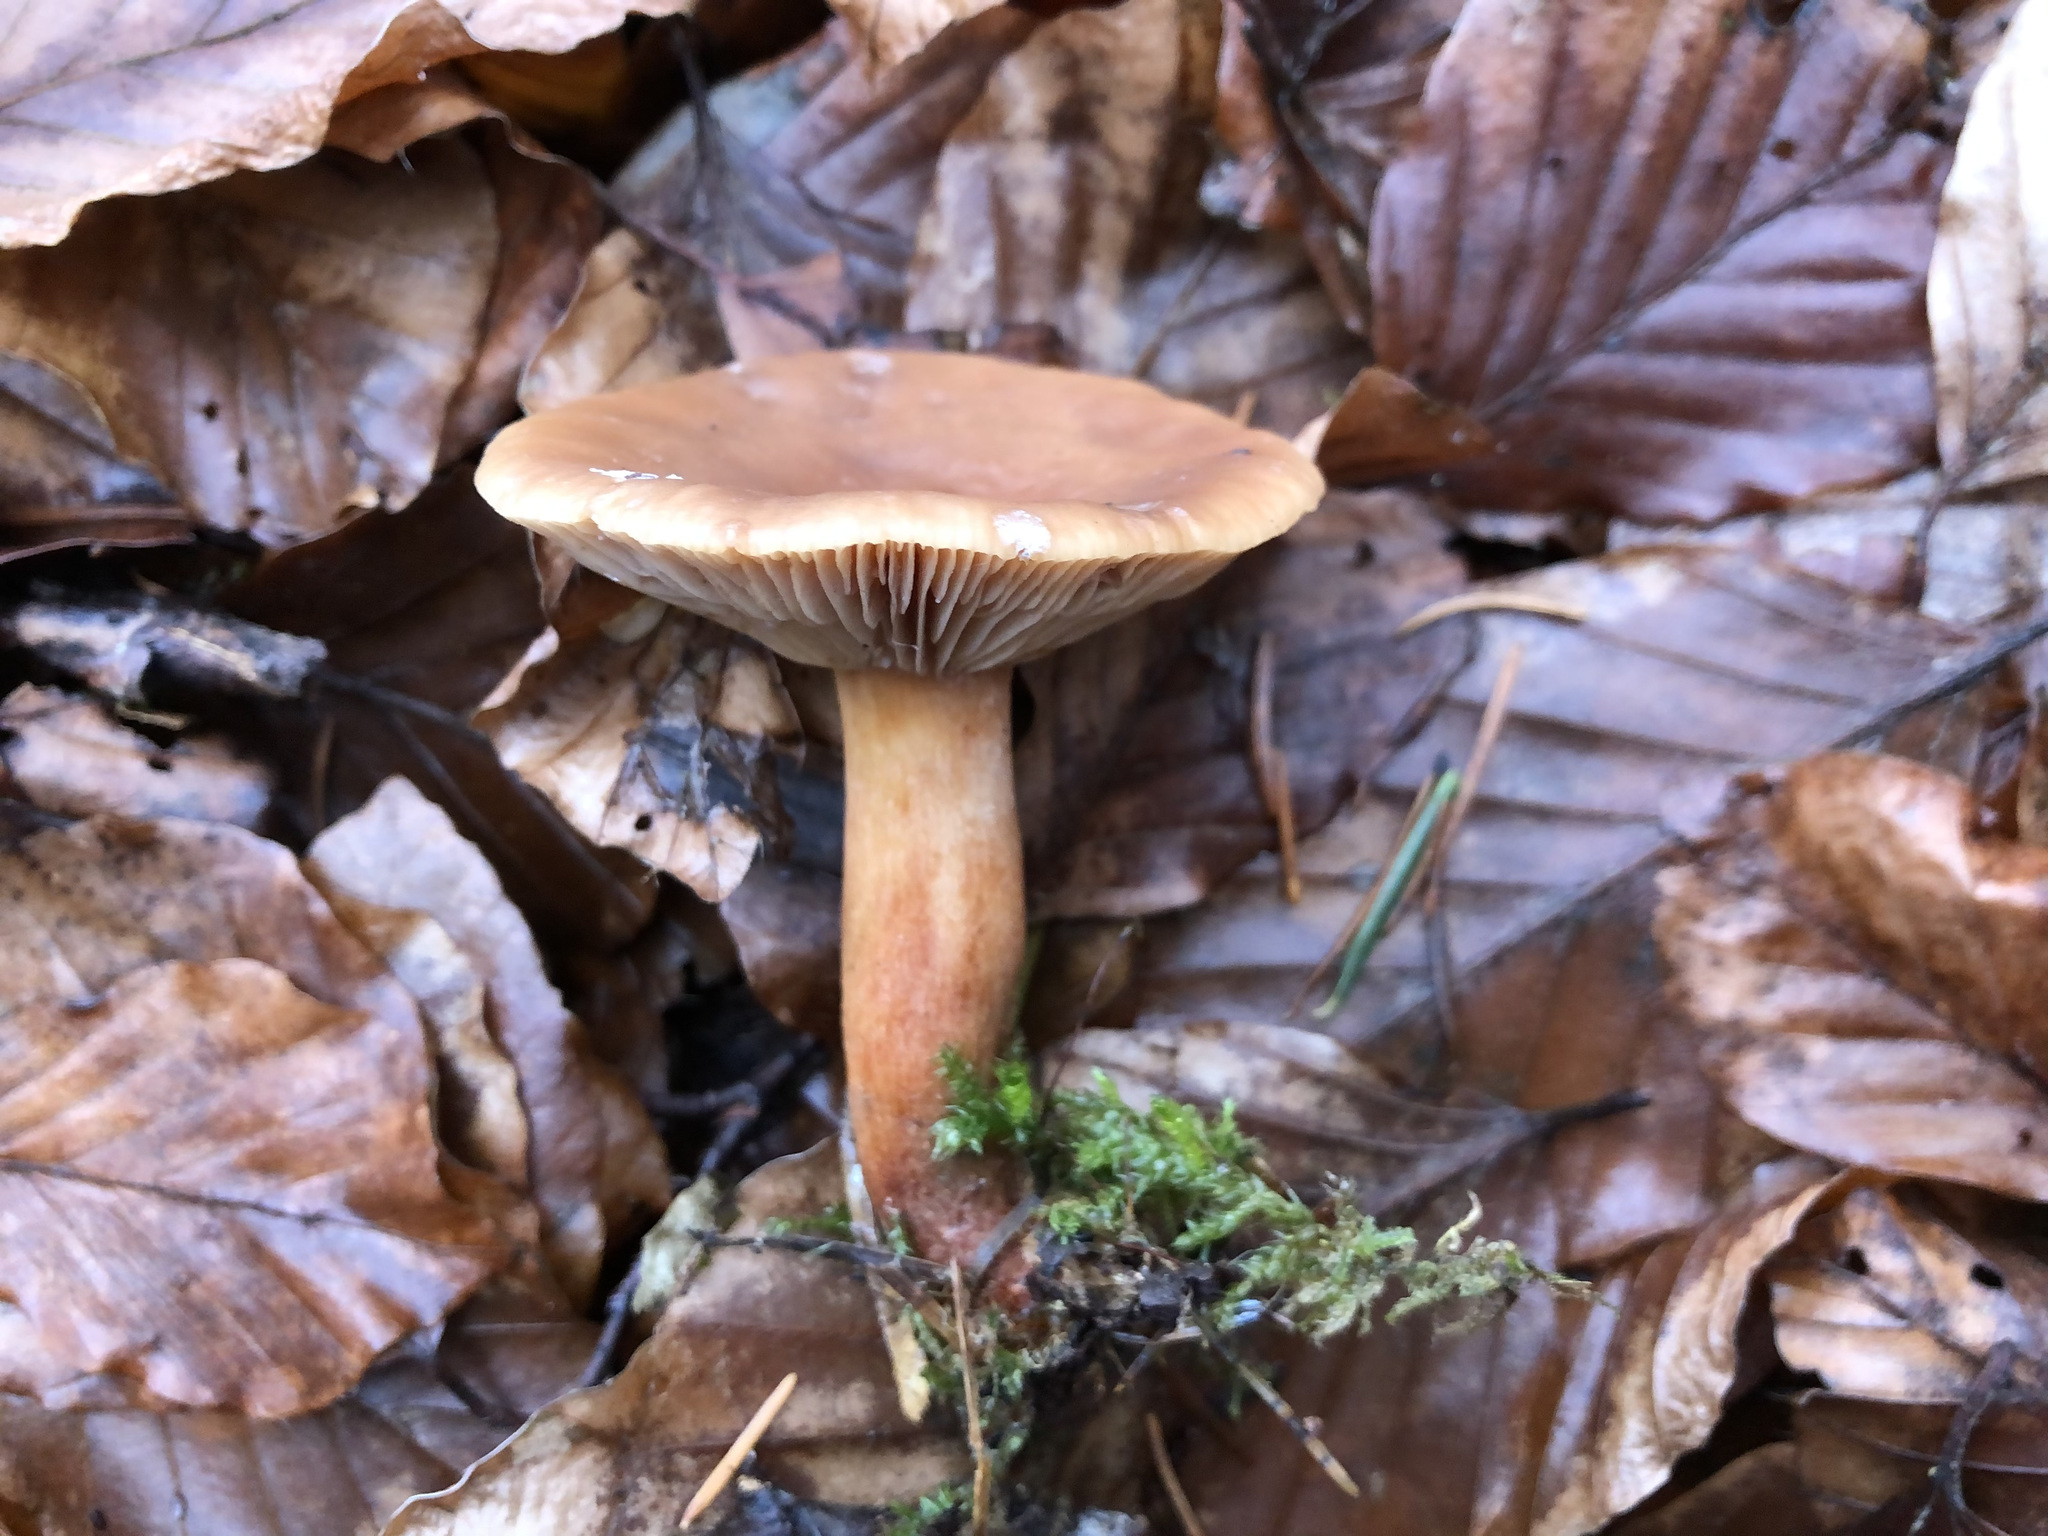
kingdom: Fungi
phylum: Basidiomycota
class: Agaricomycetes
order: Russulales
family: Russulaceae
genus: Lactarius
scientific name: Lactarius subdulcis
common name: Mild milkcap
